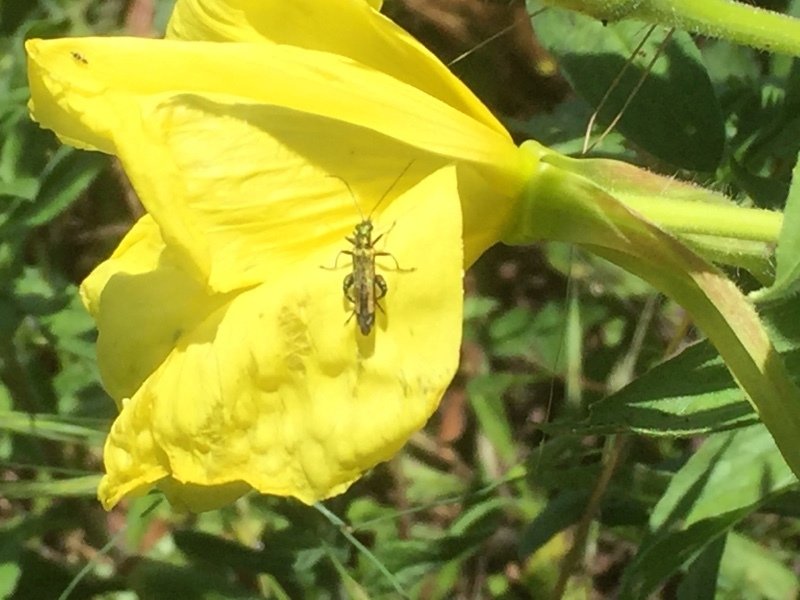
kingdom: Animalia
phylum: Arthropoda
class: Insecta
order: Coleoptera
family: Oedemeridae
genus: Oedemera
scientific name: Oedemera nobilis
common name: Swollen-thighed beetle
